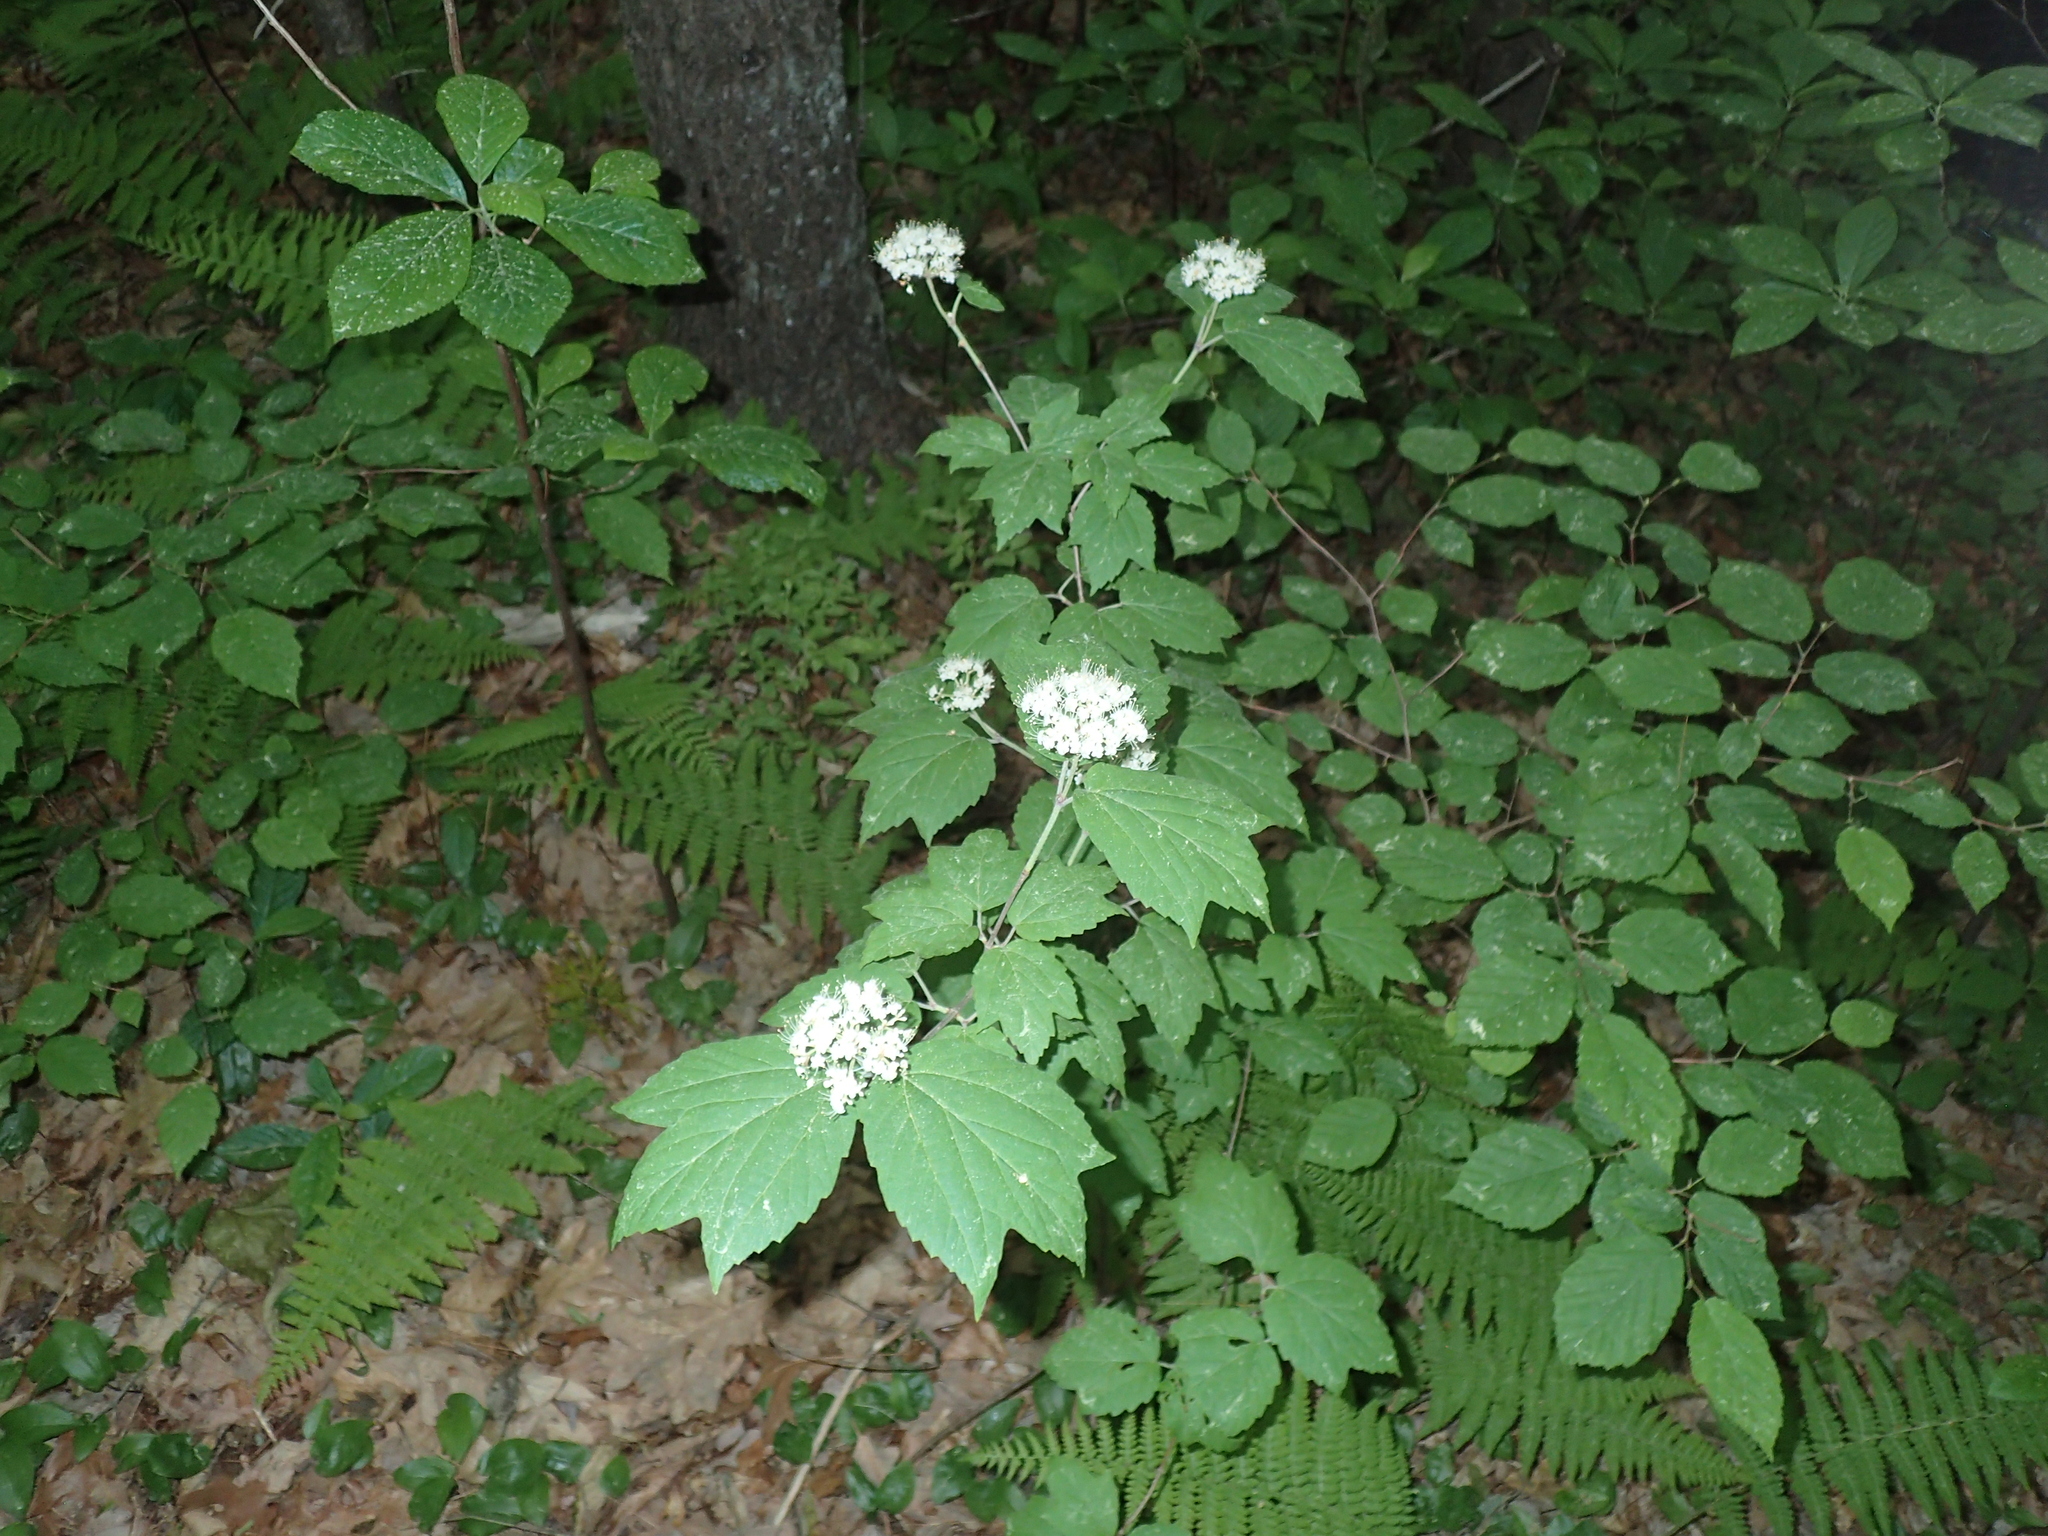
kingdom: Plantae
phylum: Tracheophyta
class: Magnoliopsida
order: Dipsacales
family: Viburnaceae
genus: Viburnum
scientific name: Viburnum acerifolium
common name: Dockmackie
